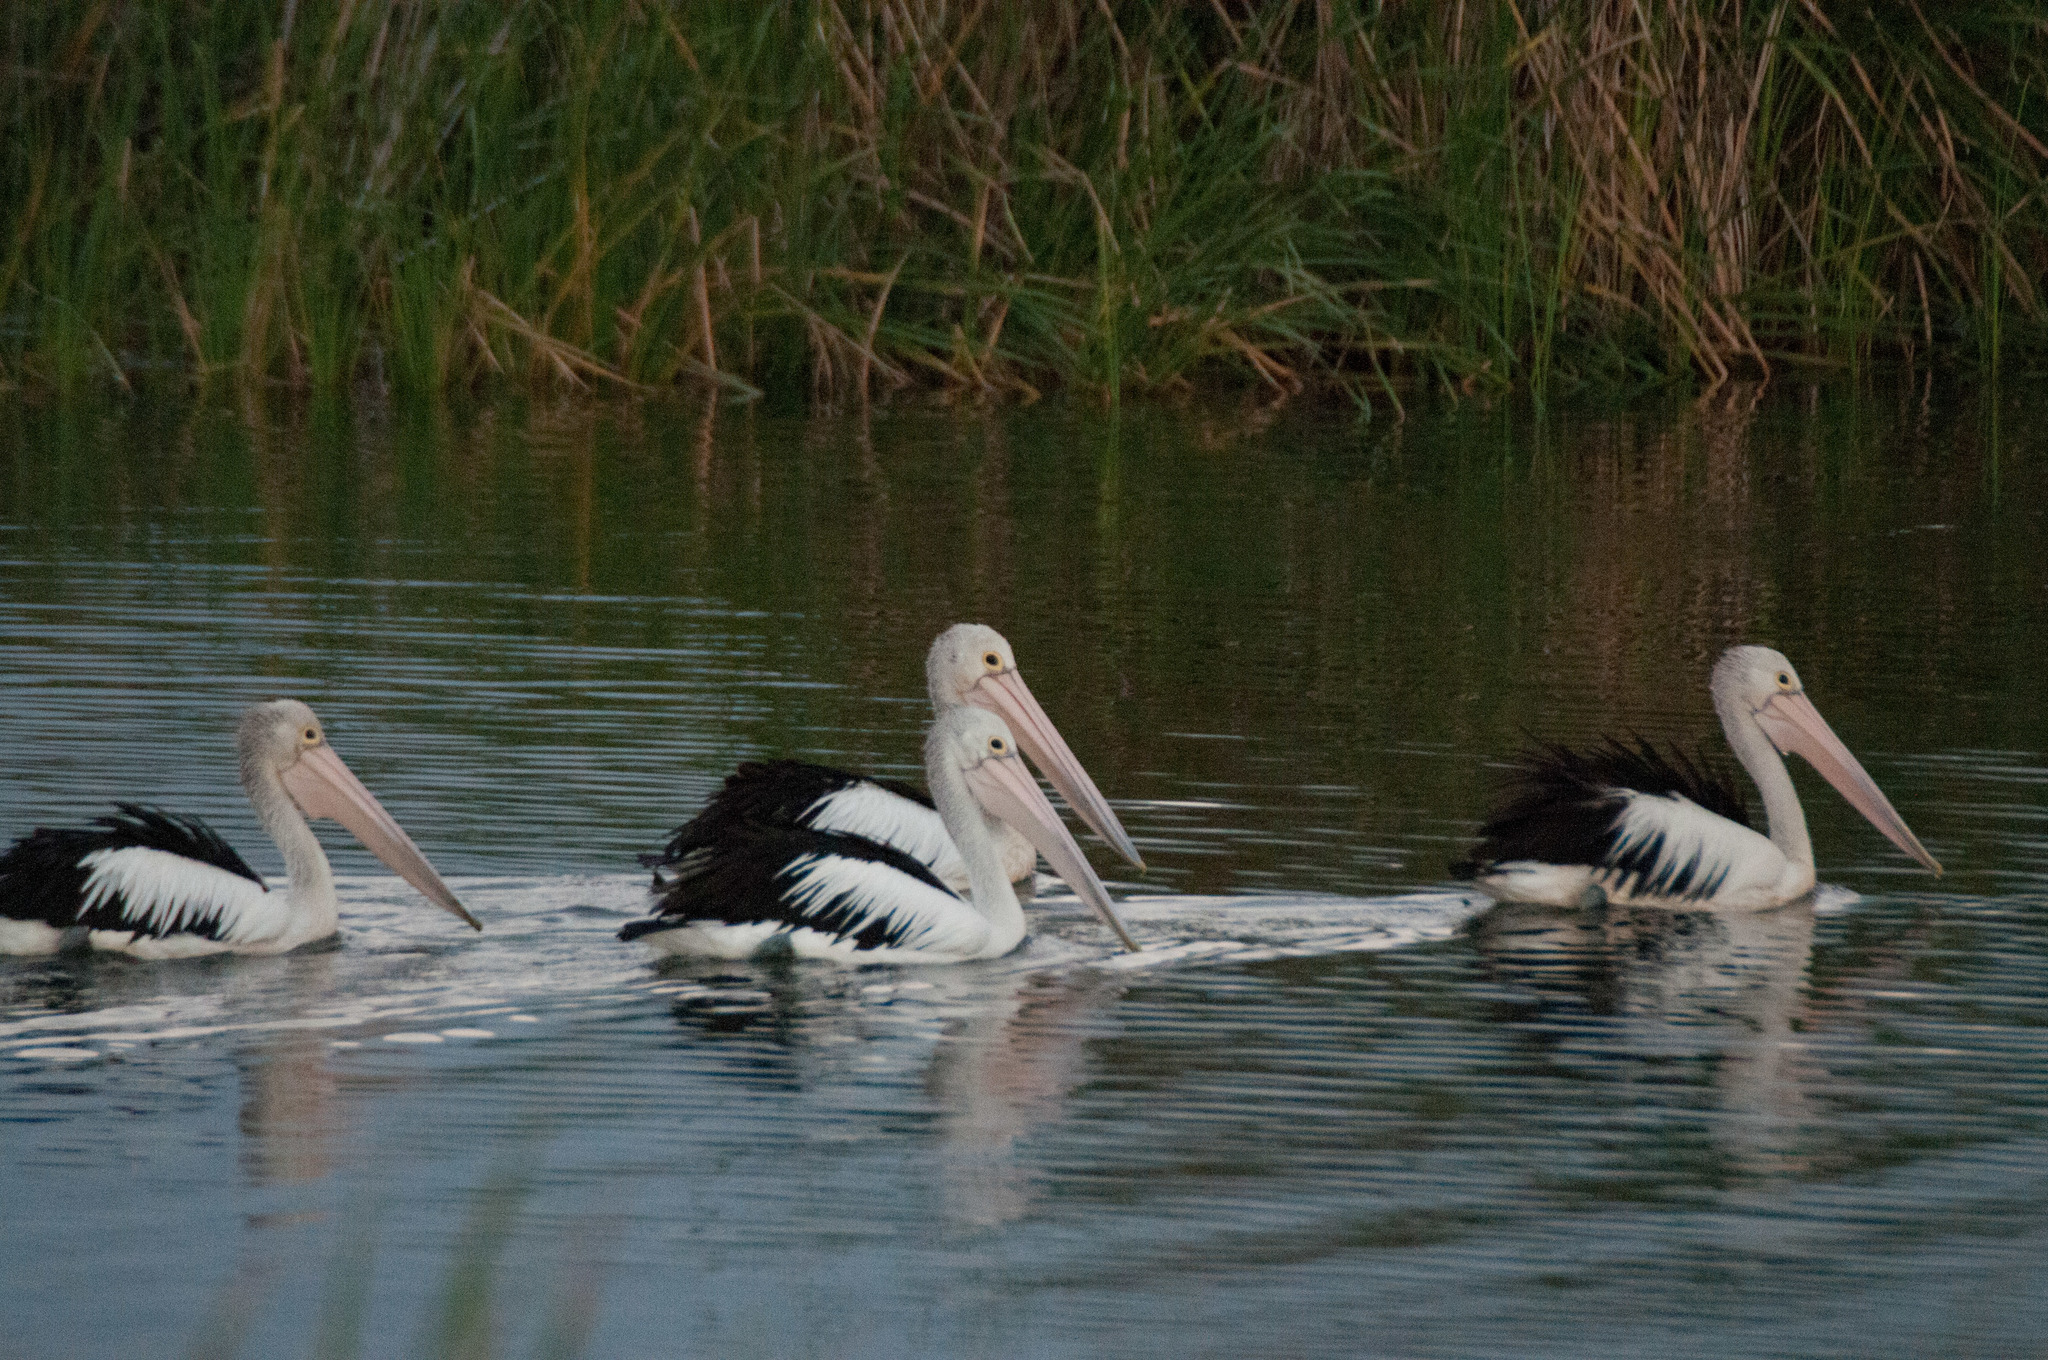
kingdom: Animalia
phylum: Chordata
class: Aves
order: Pelecaniformes
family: Pelecanidae
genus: Pelecanus
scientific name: Pelecanus conspicillatus
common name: Australian pelican
